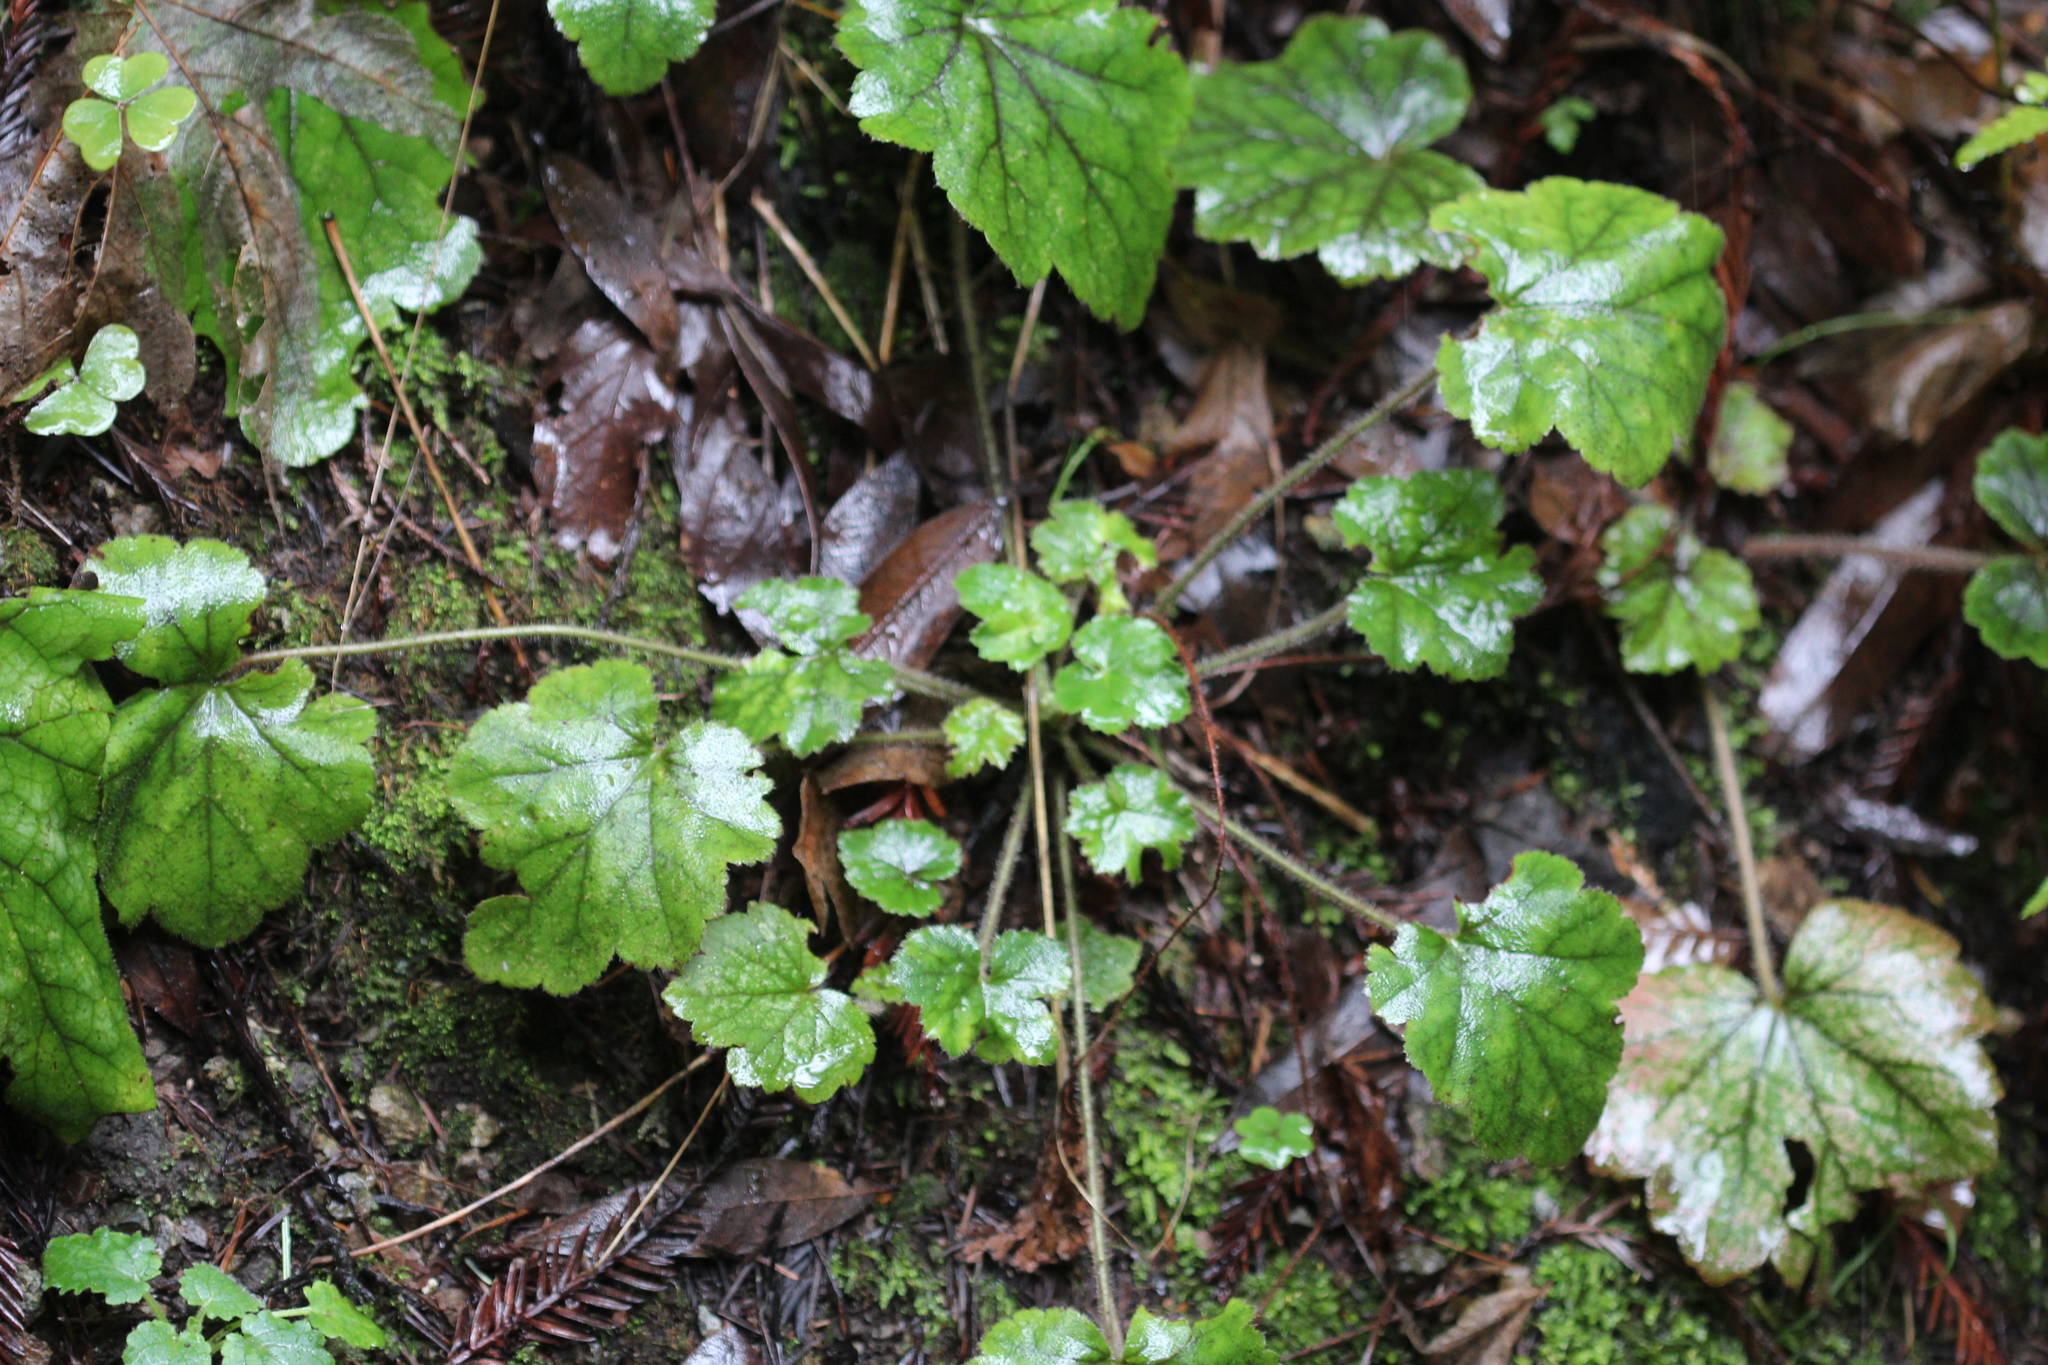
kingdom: Plantae
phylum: Tracheophyta
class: Magnoliopsida
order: Saxifragales
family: Saxifragaceae
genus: Heuchera
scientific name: Heuchera micrantha
